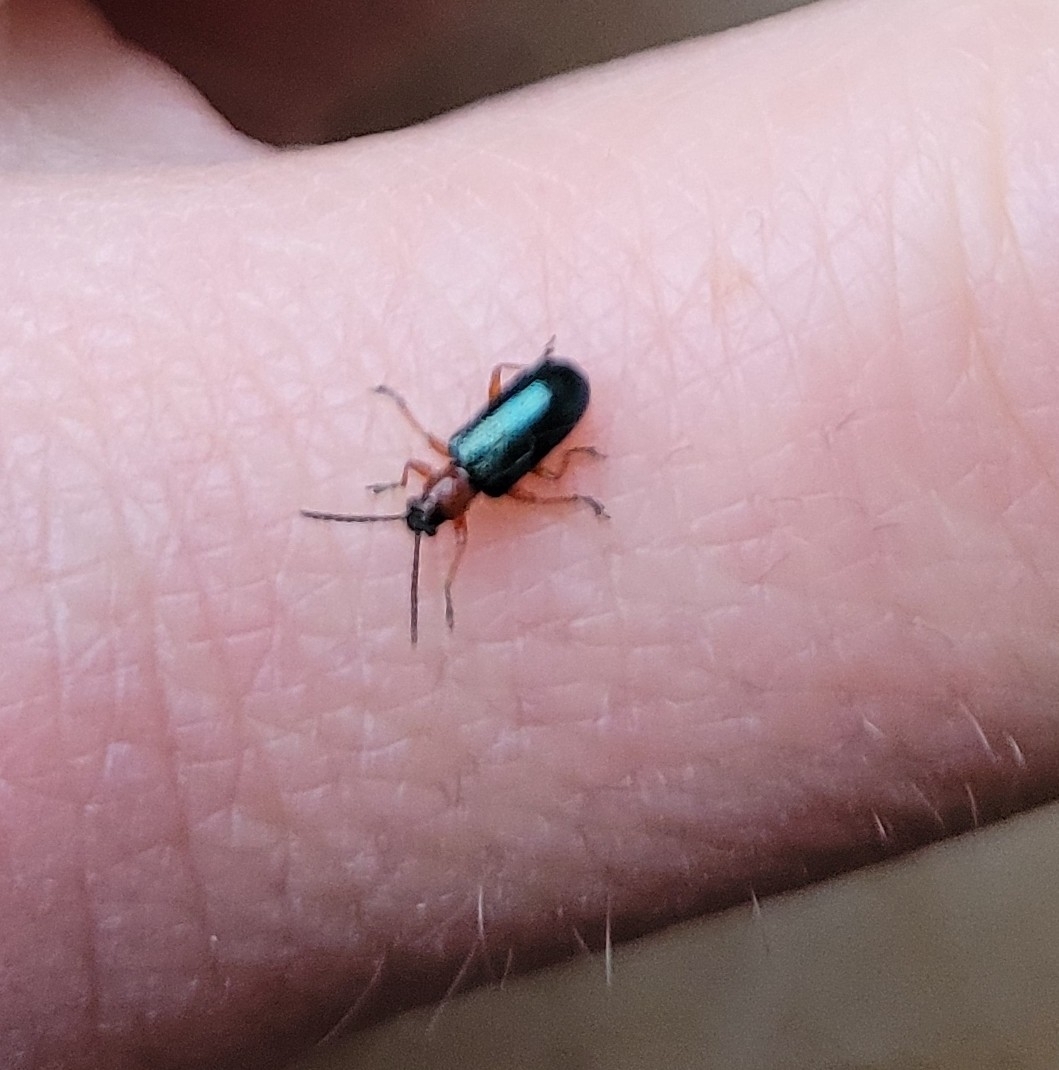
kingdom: Animalia
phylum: Arthropoda
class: Insecta
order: Coleoptera
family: Chrysomelidae
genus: Oulema
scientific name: Oulema
